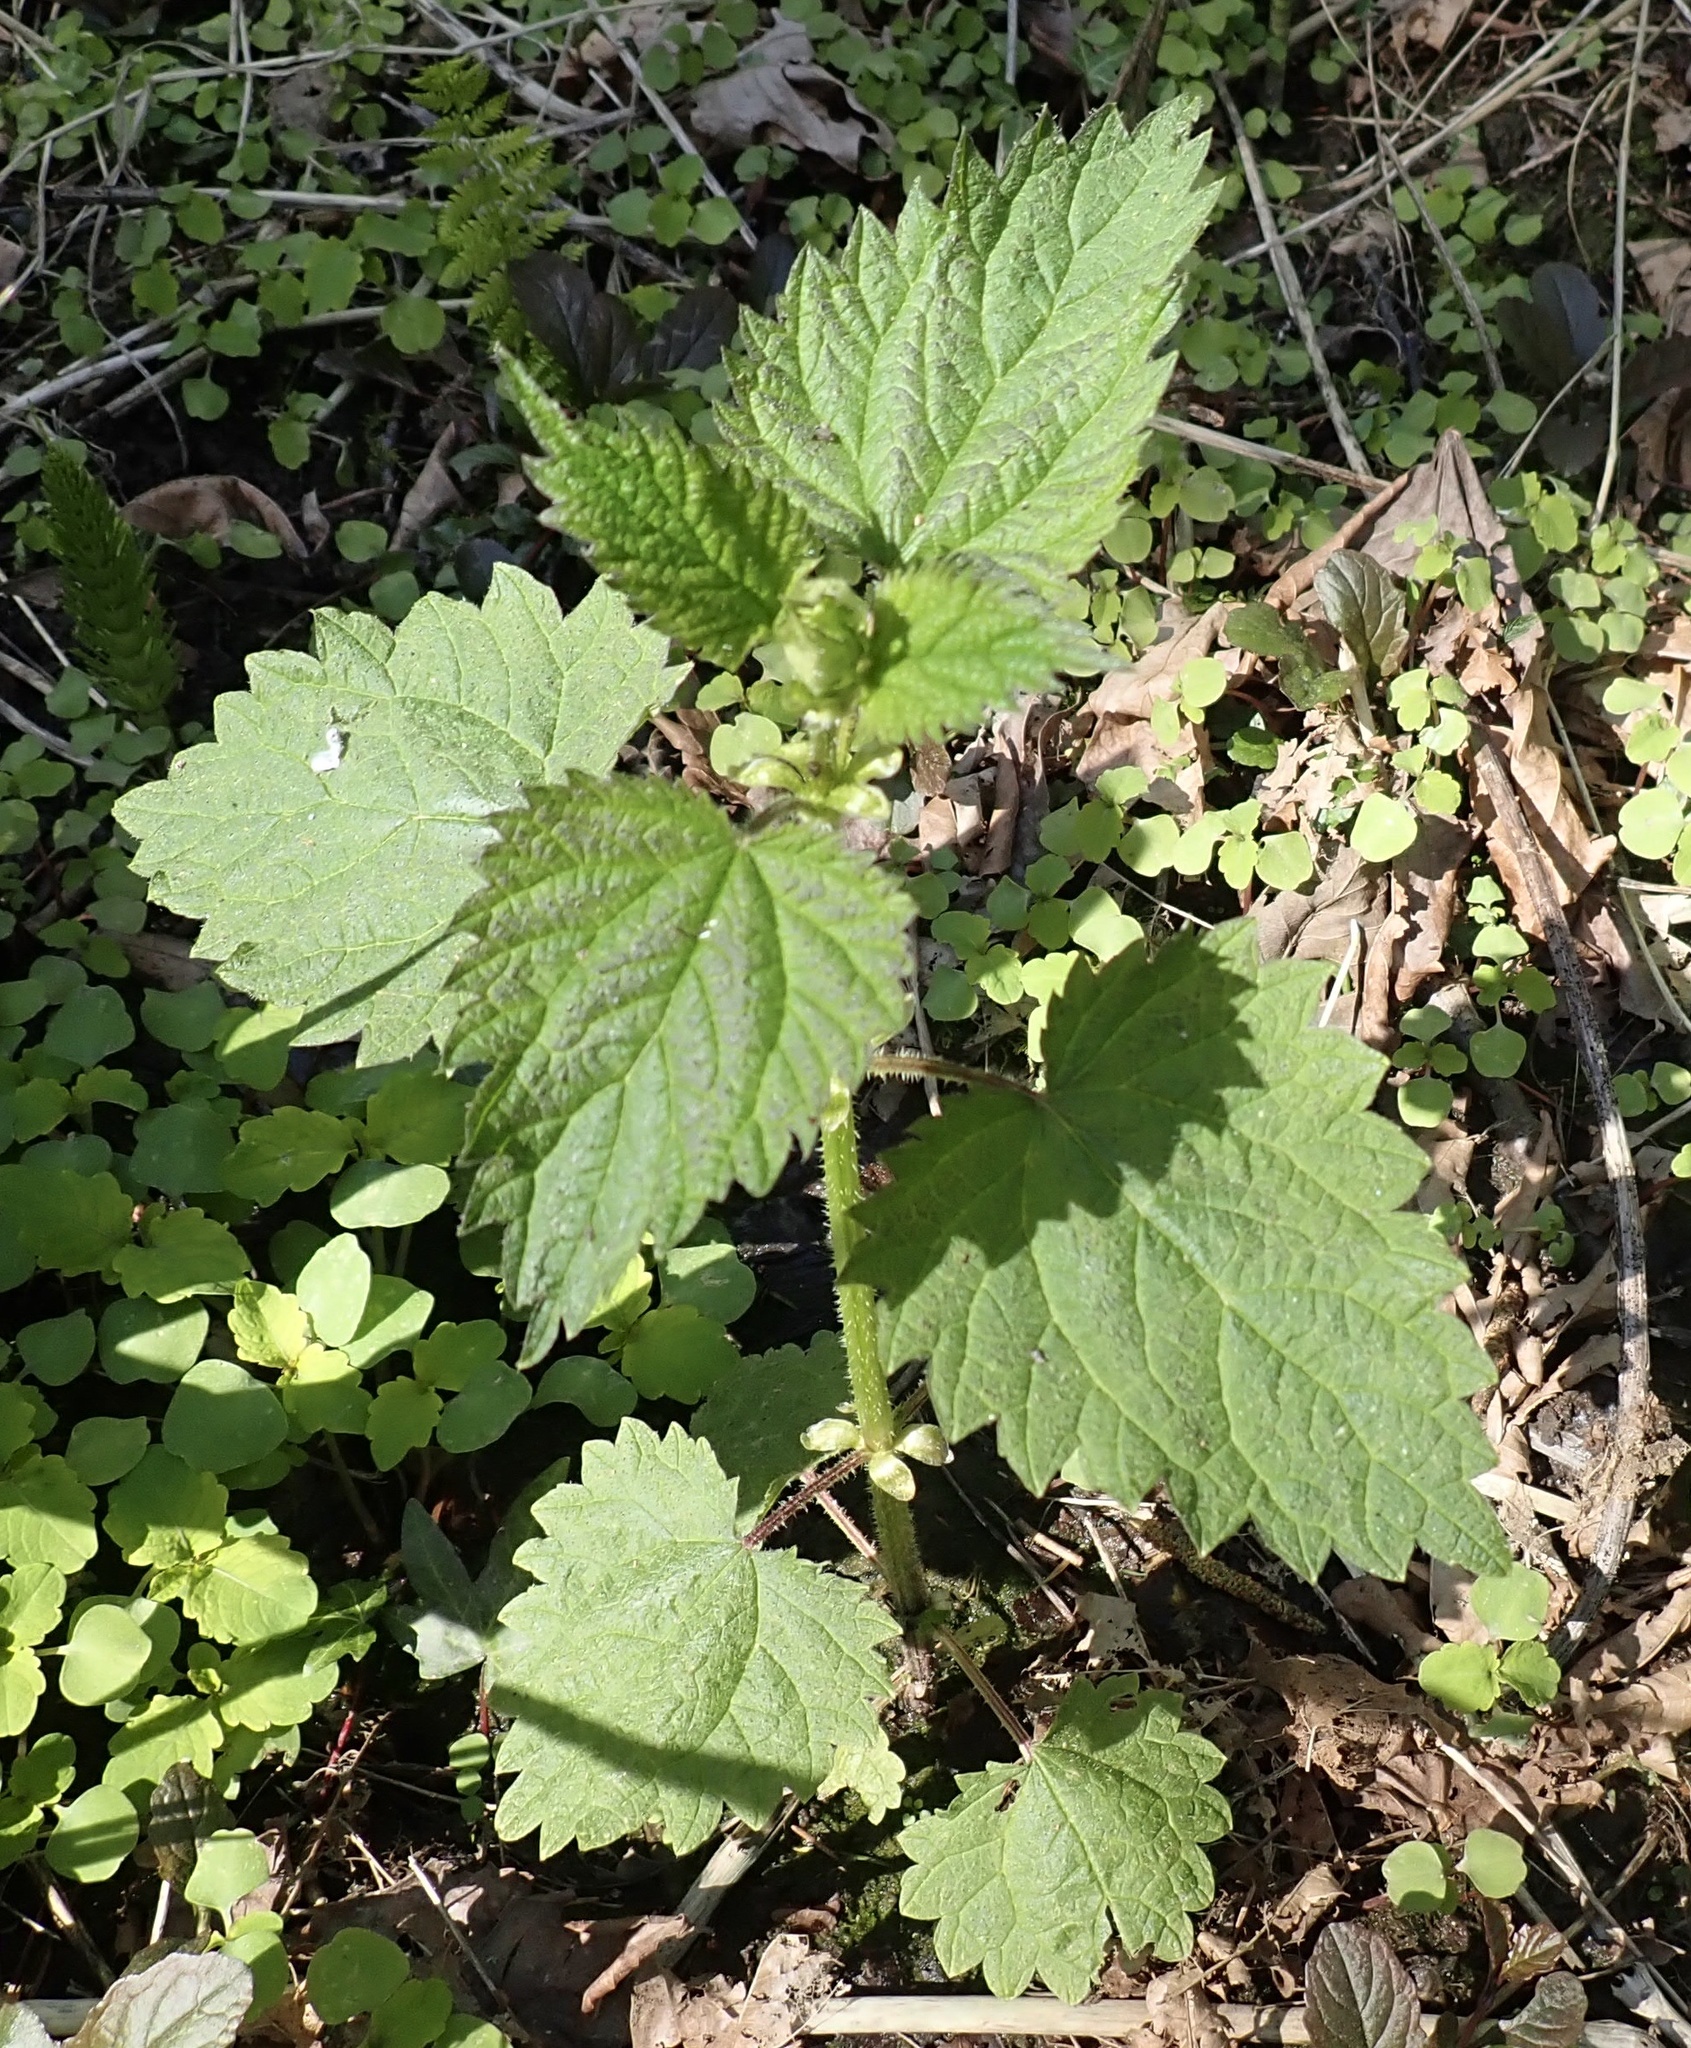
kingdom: Plantae
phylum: Tracheophyta
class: Magnoliopsida
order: Rosales
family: Urticaceae
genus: Urtica
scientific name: Urtica dioica
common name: Common nettle
